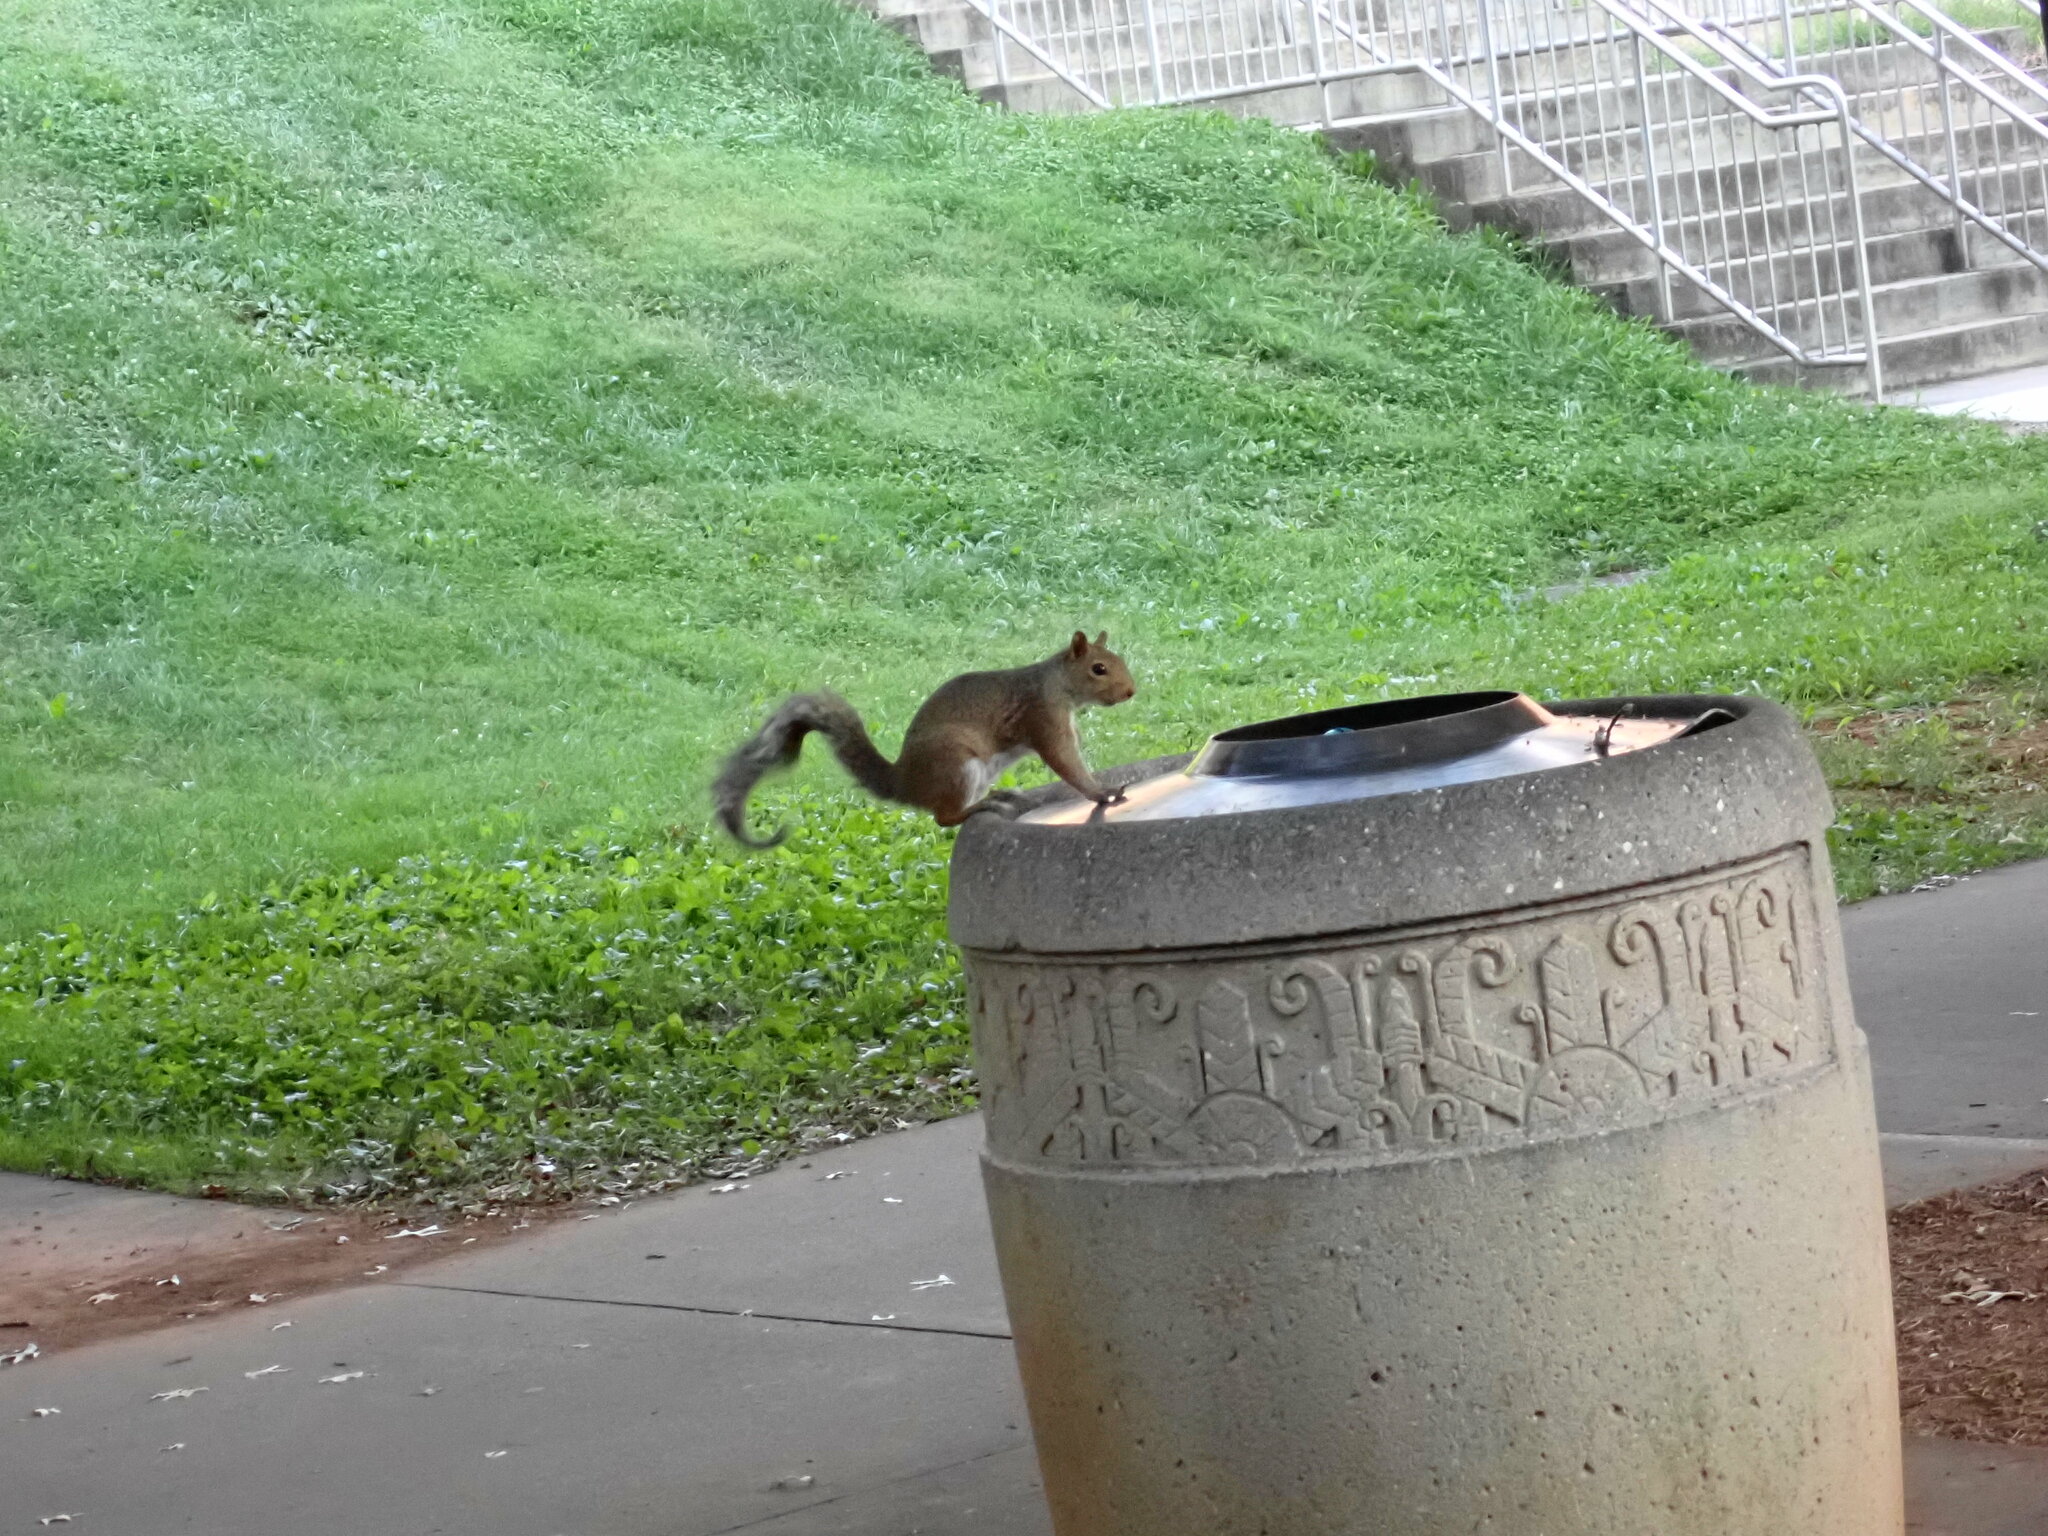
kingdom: Animalia
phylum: Chordata
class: Mammalia
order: Rodentia
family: Sciuridae
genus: Sciurus
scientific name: Sciurus carolinensis
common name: Eastern gray squirrel
